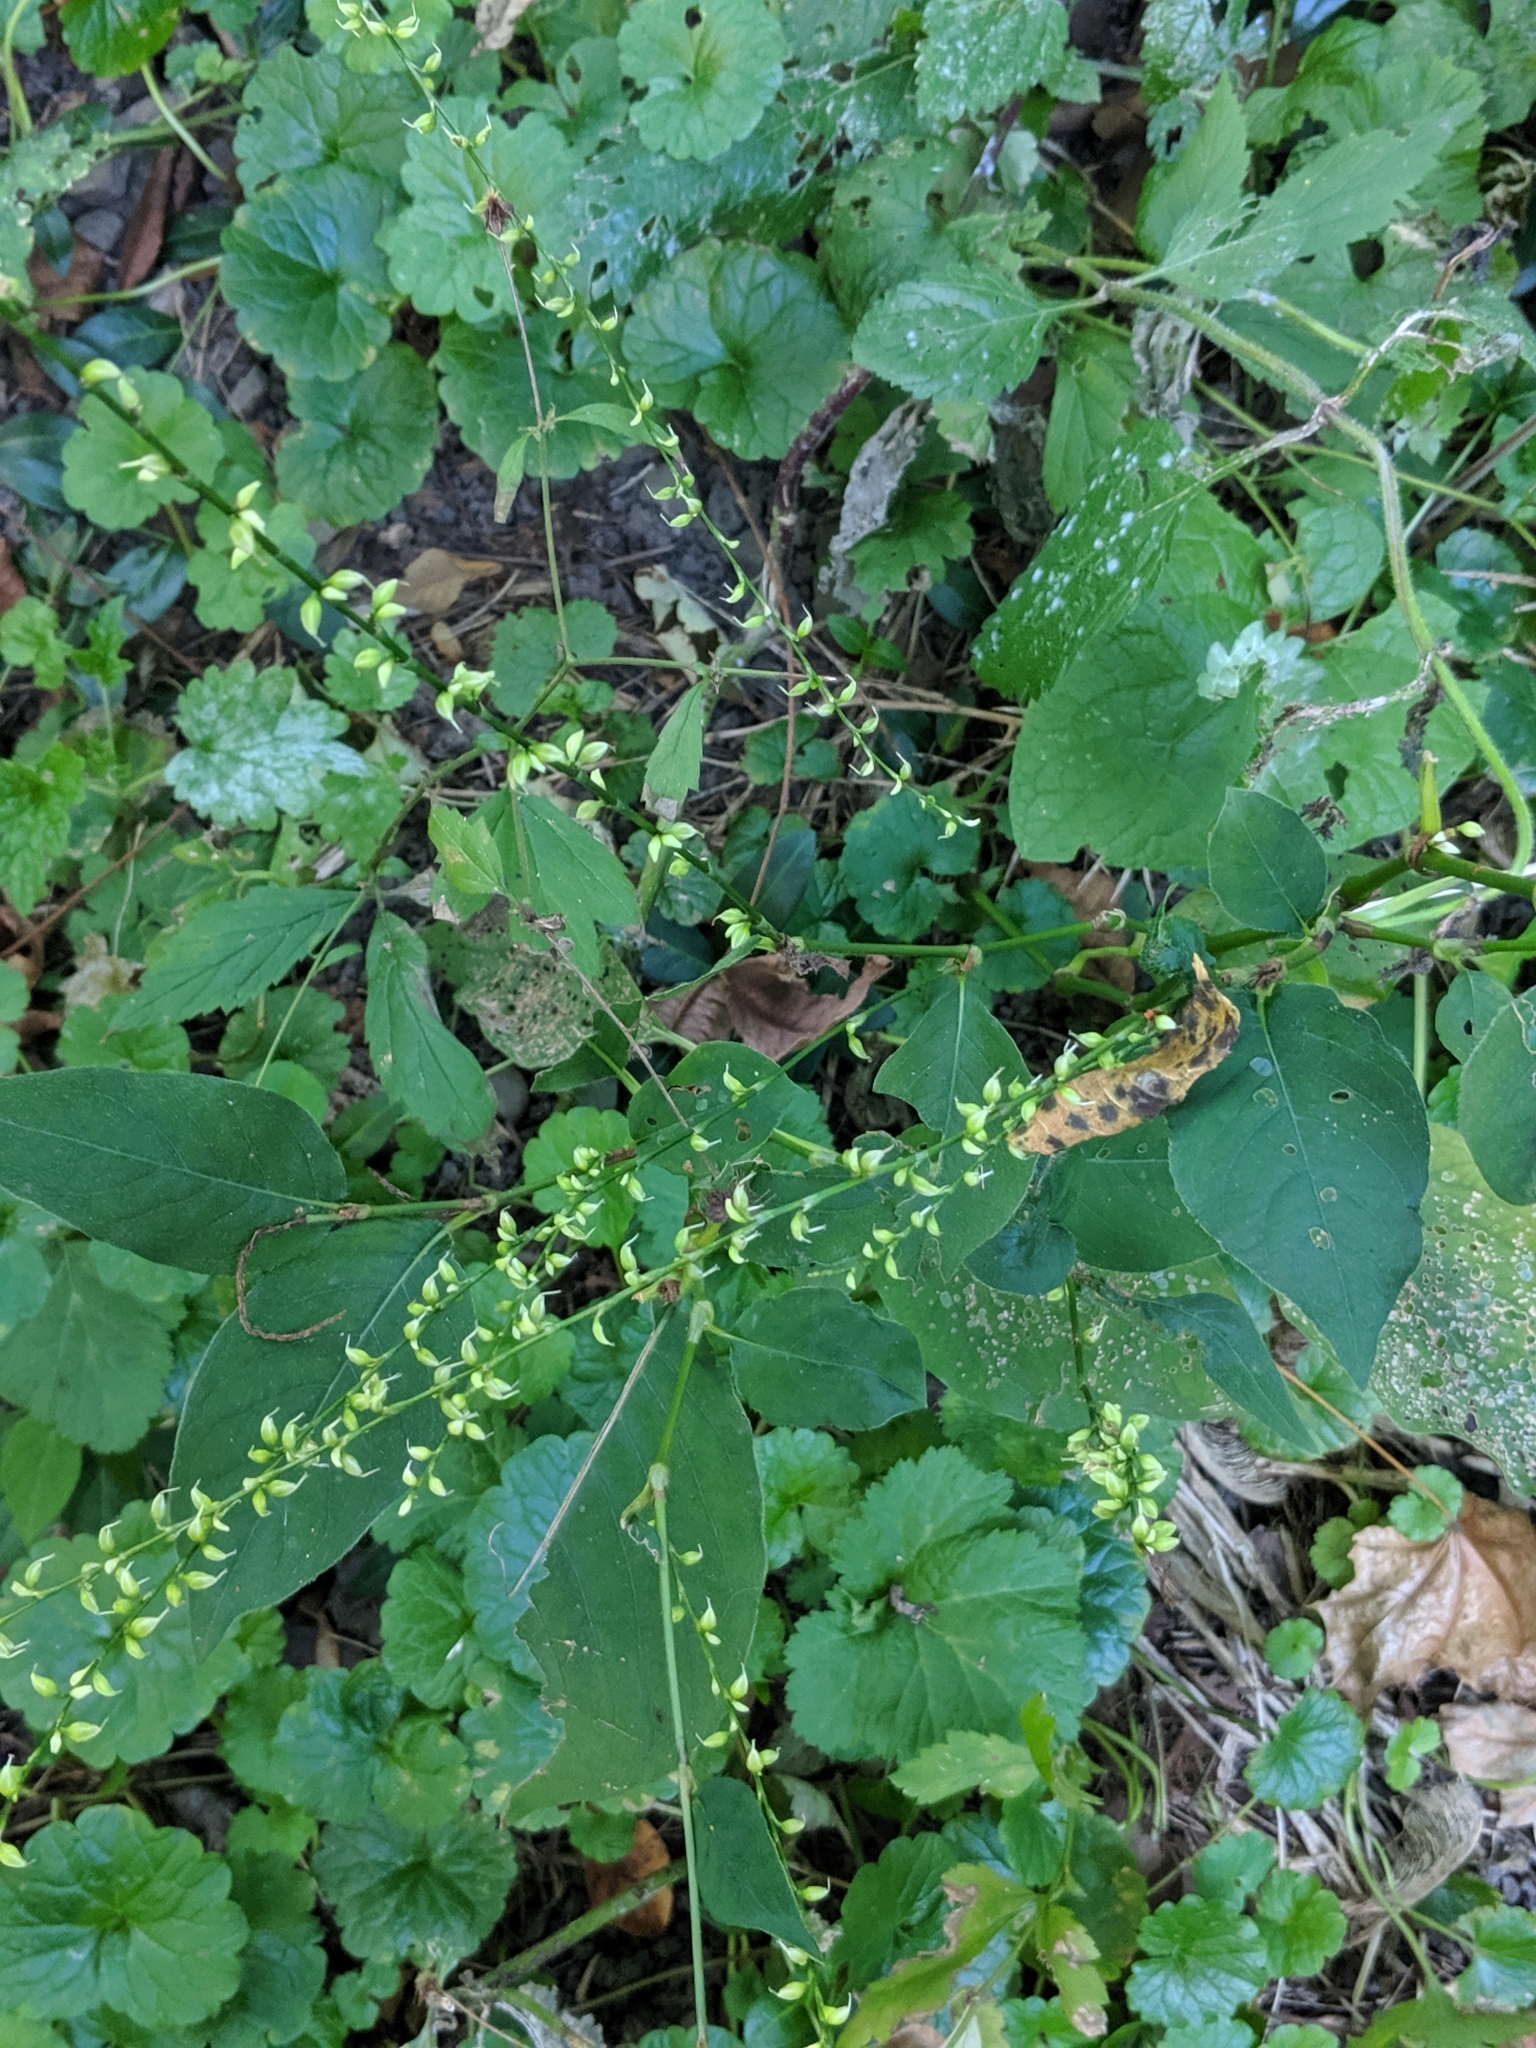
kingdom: Plantae
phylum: Tracheophyta
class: Magnoliopsida
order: Caryophyllales
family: Polygonaceae
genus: Persicaria
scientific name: Persicaria virginiana
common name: Jumpseed
